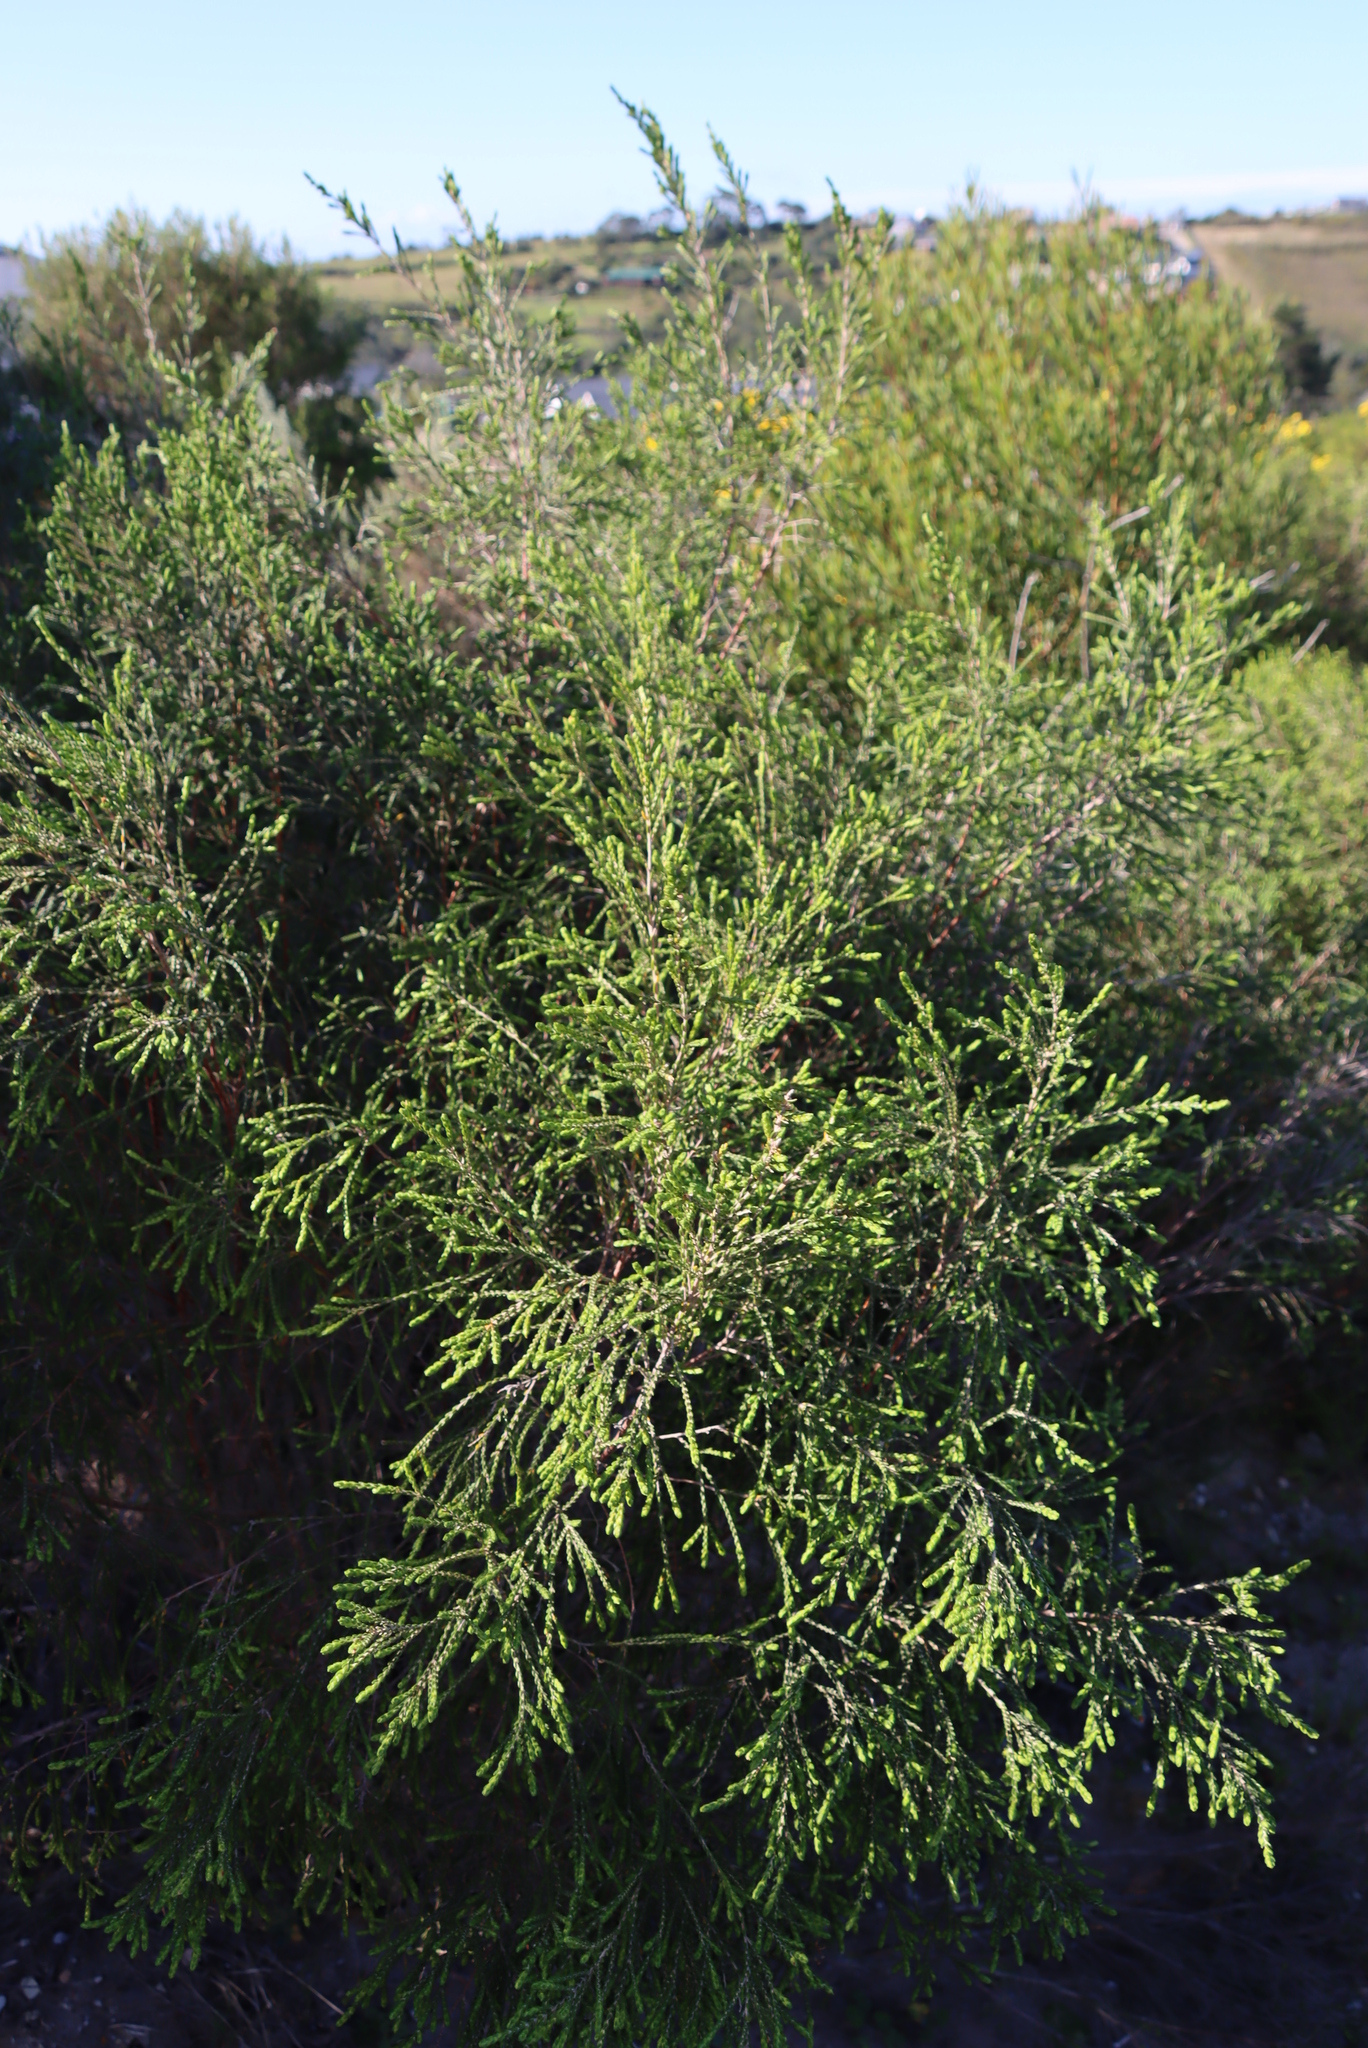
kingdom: Plantae
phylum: Tracheophyta
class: Magnoliopsida
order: Malvales
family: Thymelaeaceae
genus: Passerina
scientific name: Passerina rigida
